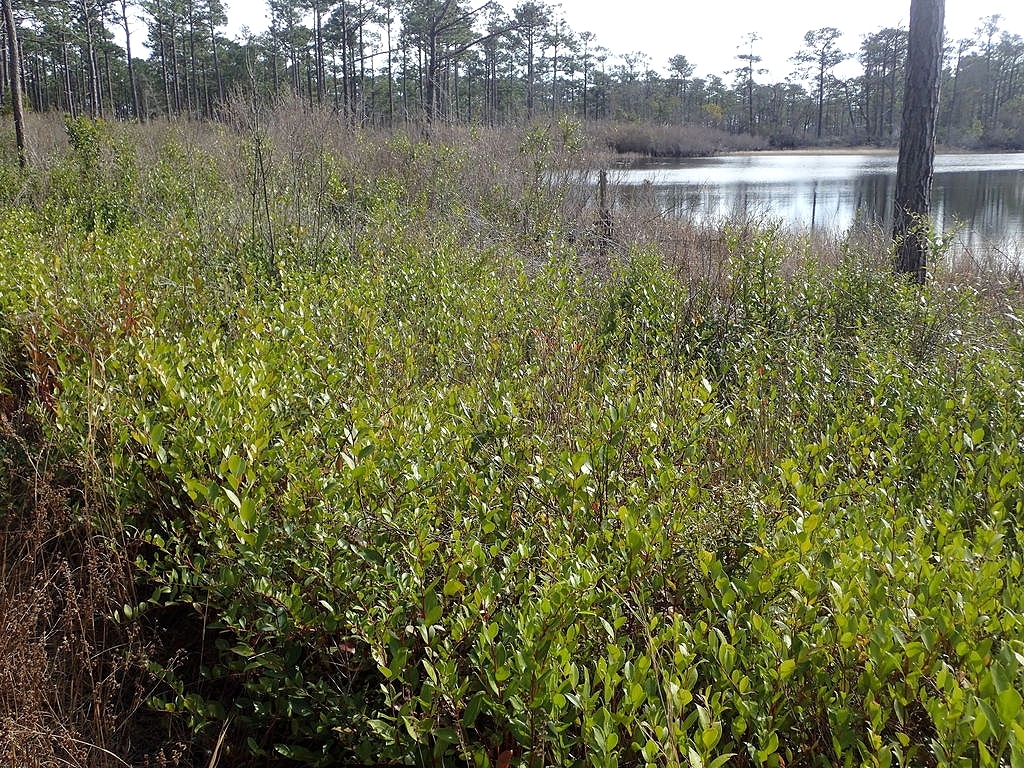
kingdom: Plantae
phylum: Tracheophyta
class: Magnoliopsida
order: Ericales
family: Ericaceae
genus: Lyonia
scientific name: Lyonia lucida
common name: Fetterbush
